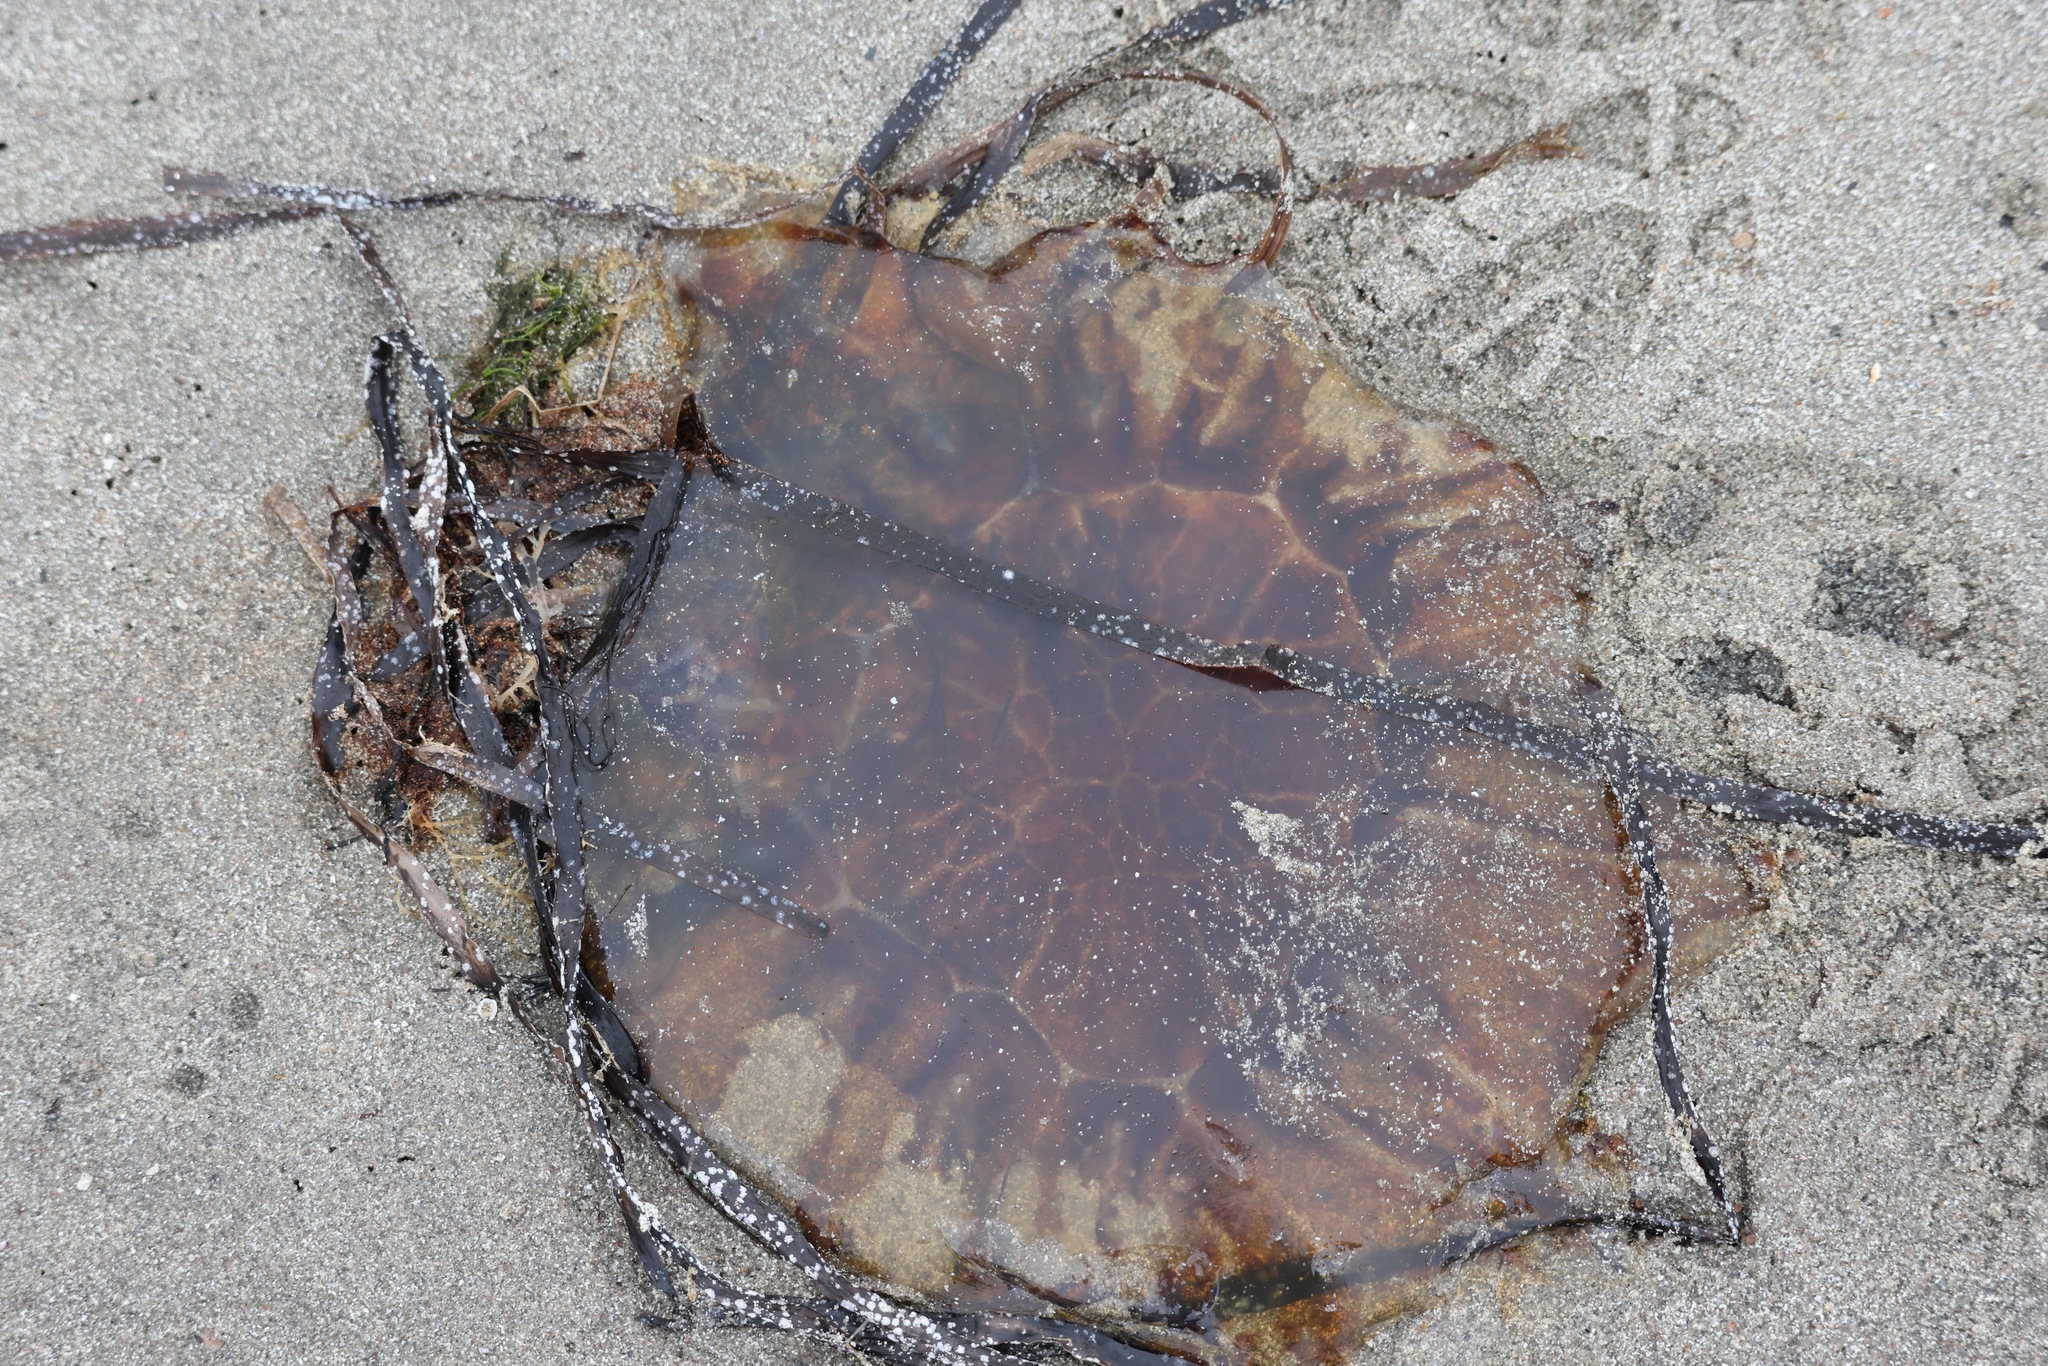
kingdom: Animalia
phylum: Cnidaria
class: Scyphozoa
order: Semaeostomeae
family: Cyaneidae
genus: Cyanea
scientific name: Cyanea capillata
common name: Lion's mane jellyfish
